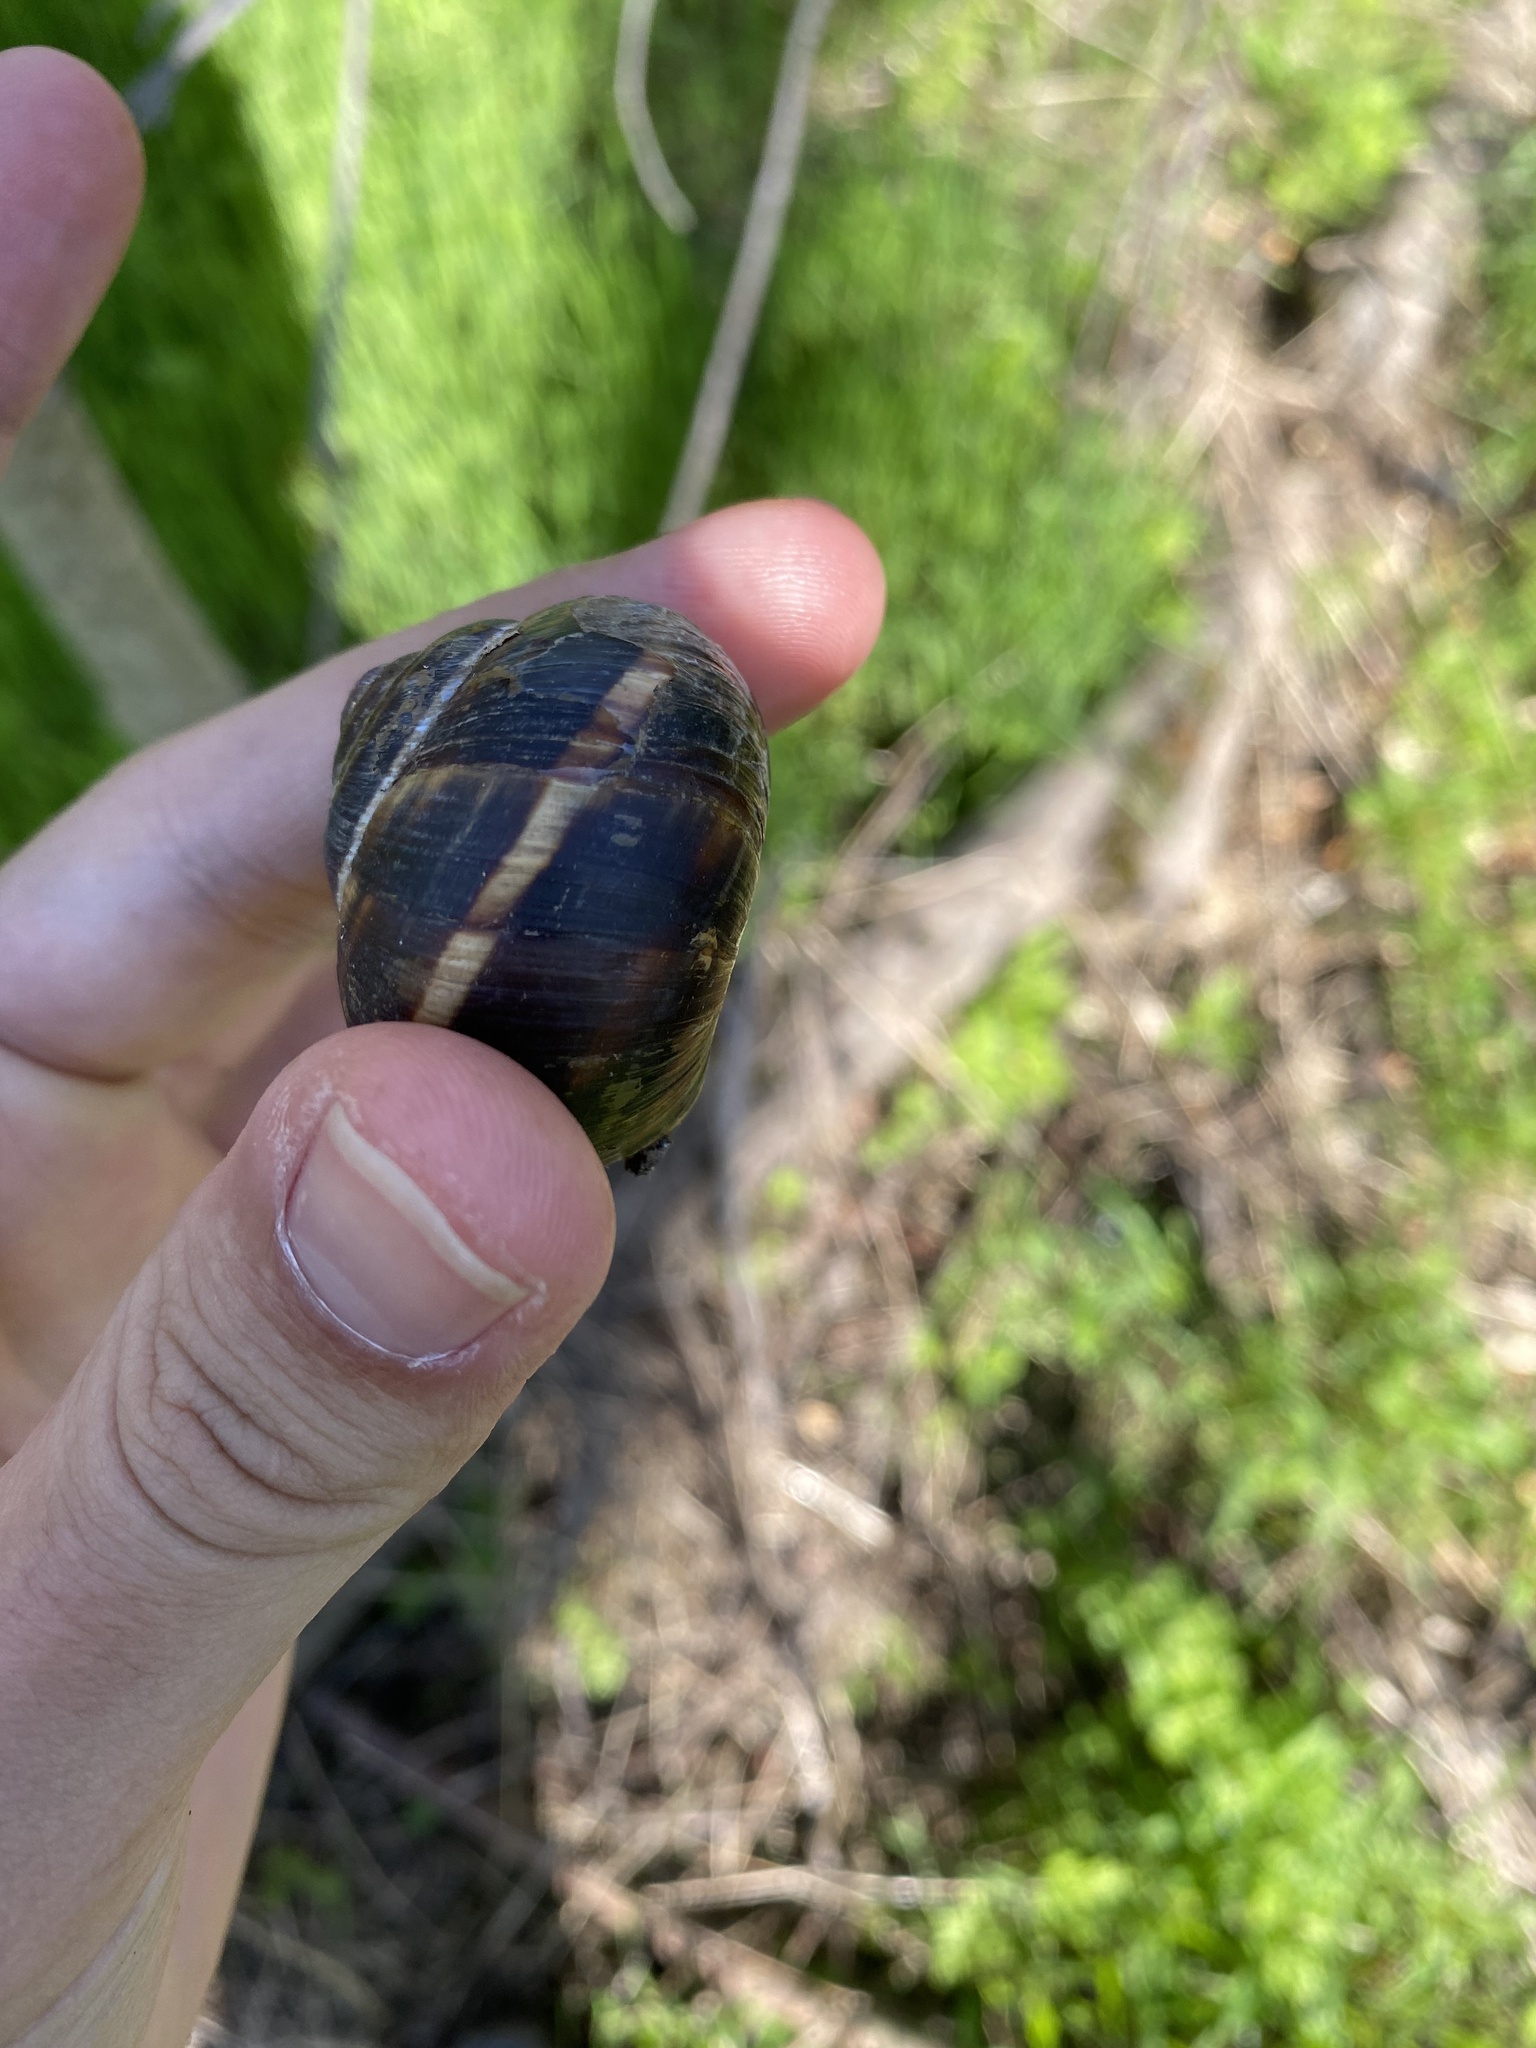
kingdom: Animalia
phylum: Mollusca
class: Gastropoda
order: Stylommatophora
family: Helicidae
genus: Helix
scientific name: Helix lucorum
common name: Turkish snail
